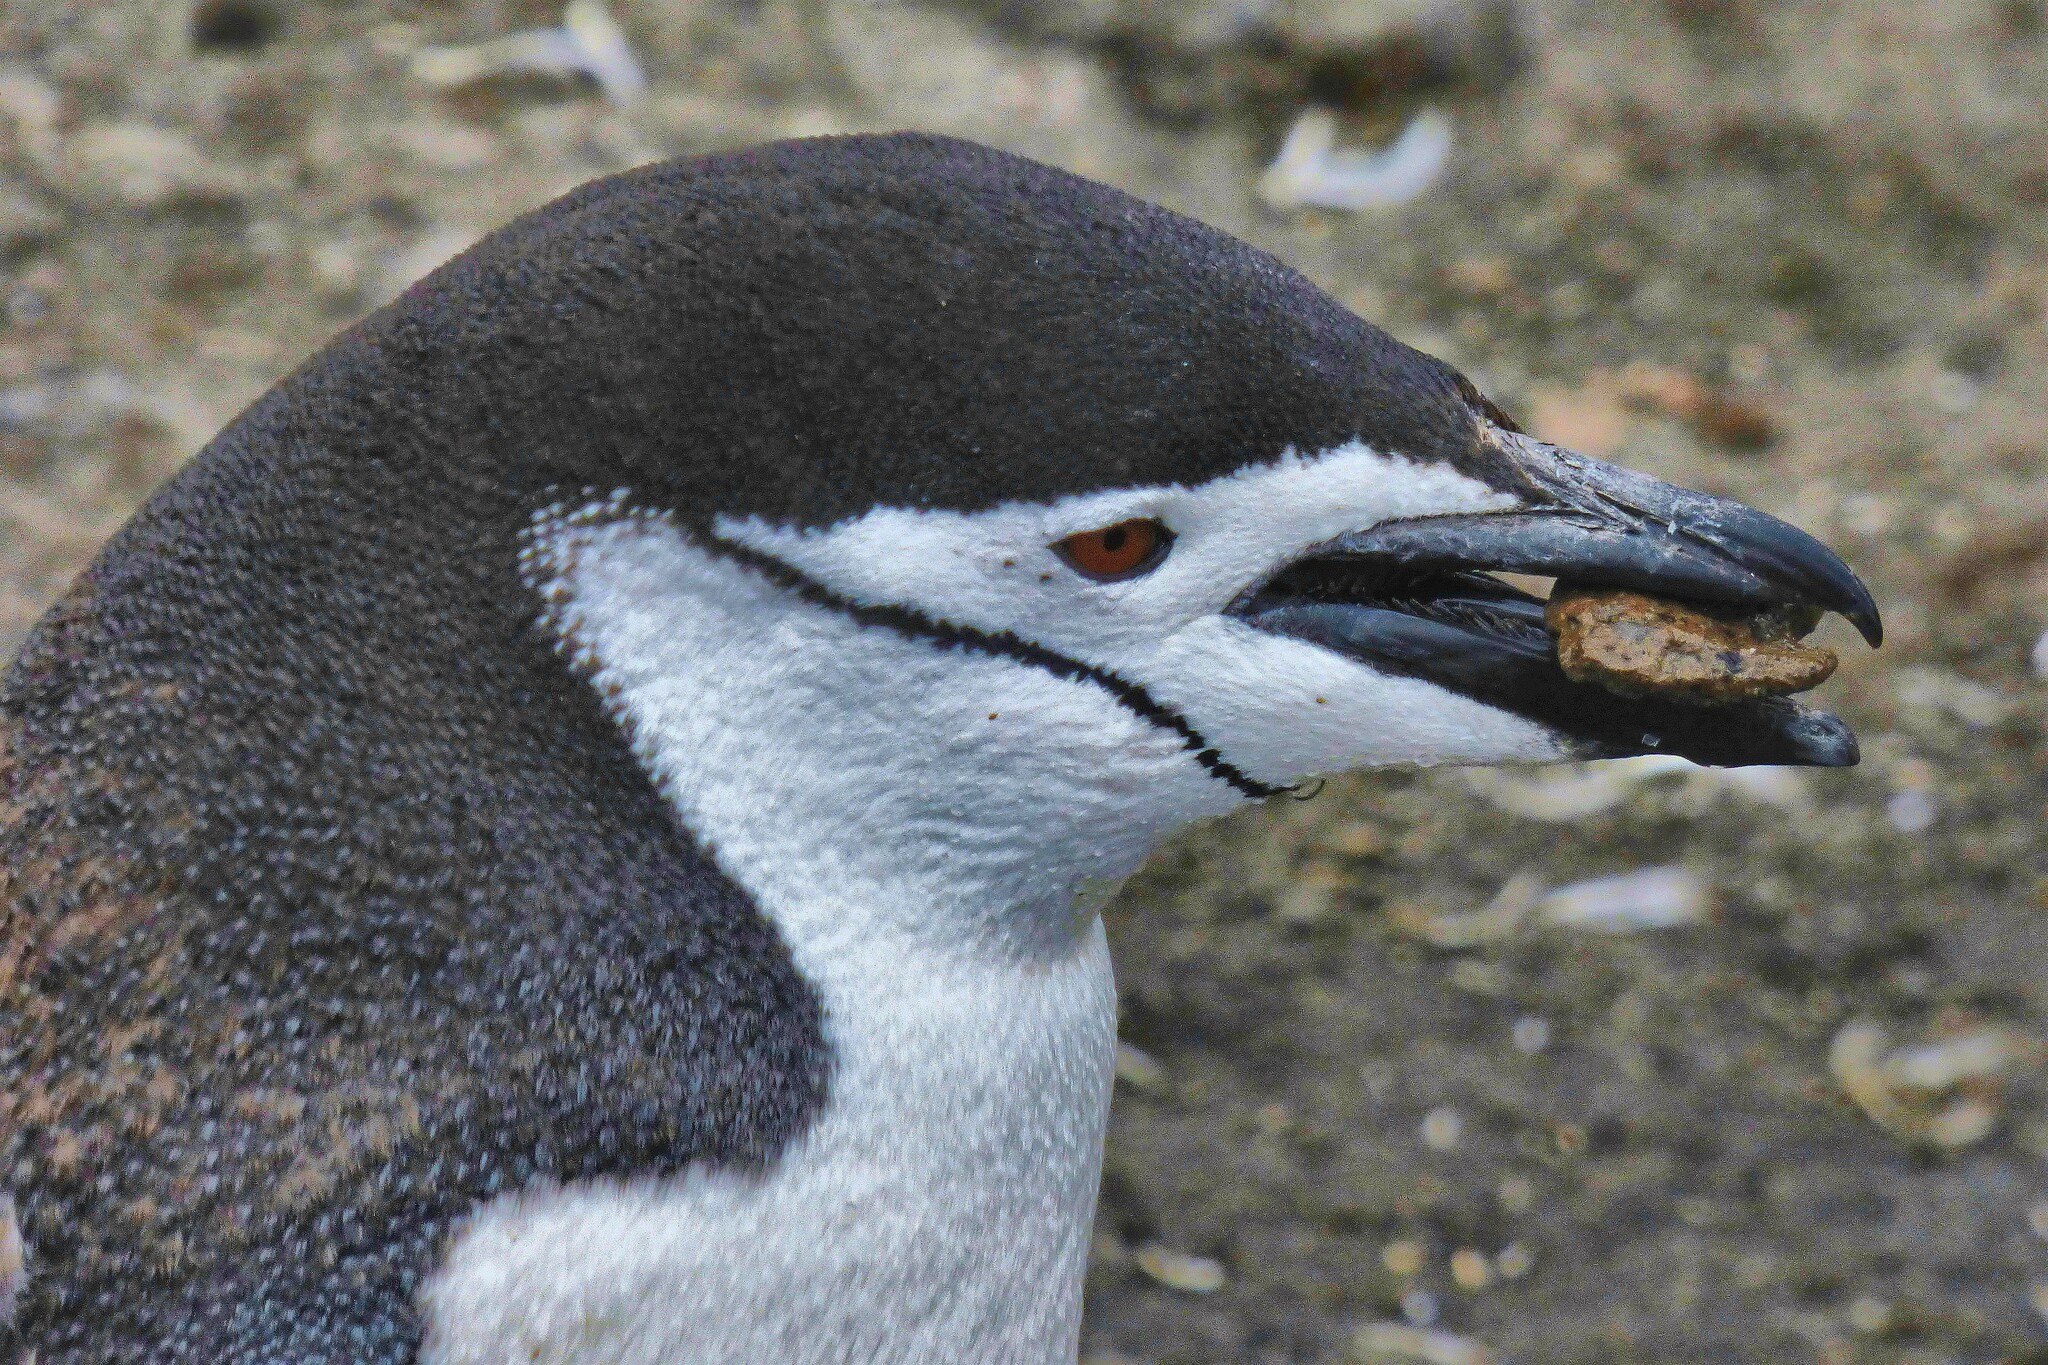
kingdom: Animalia
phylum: Chordata
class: Aves
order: Sphenisciformes
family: Spheniscidae
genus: Pygoscelis
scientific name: Pygoscelis antarcticus
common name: Chinstrap penguin
